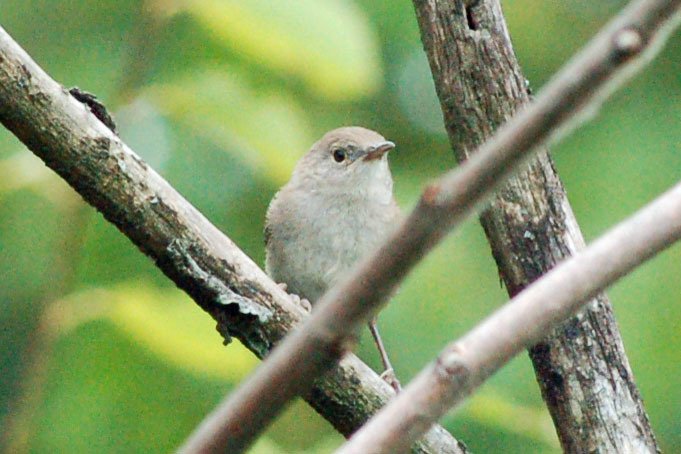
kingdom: Animalia
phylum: Chordata
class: Aves
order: Passeriformes
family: Troglodytidae
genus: Troglodytes
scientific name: Troglodytes aedon
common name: House wren
